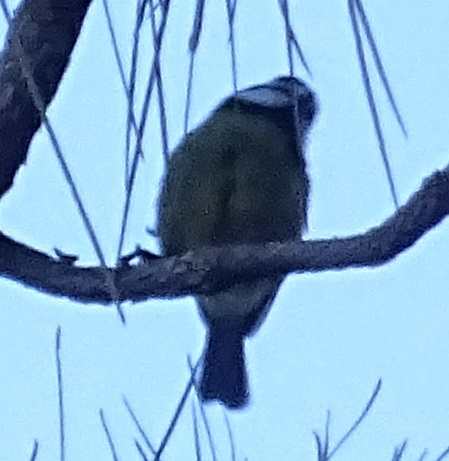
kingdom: Animalia
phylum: Chordata
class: Aves
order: Passeriformes
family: Paridae
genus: Cyanistes
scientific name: Cyanistes teneriffae
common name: African blue tit
